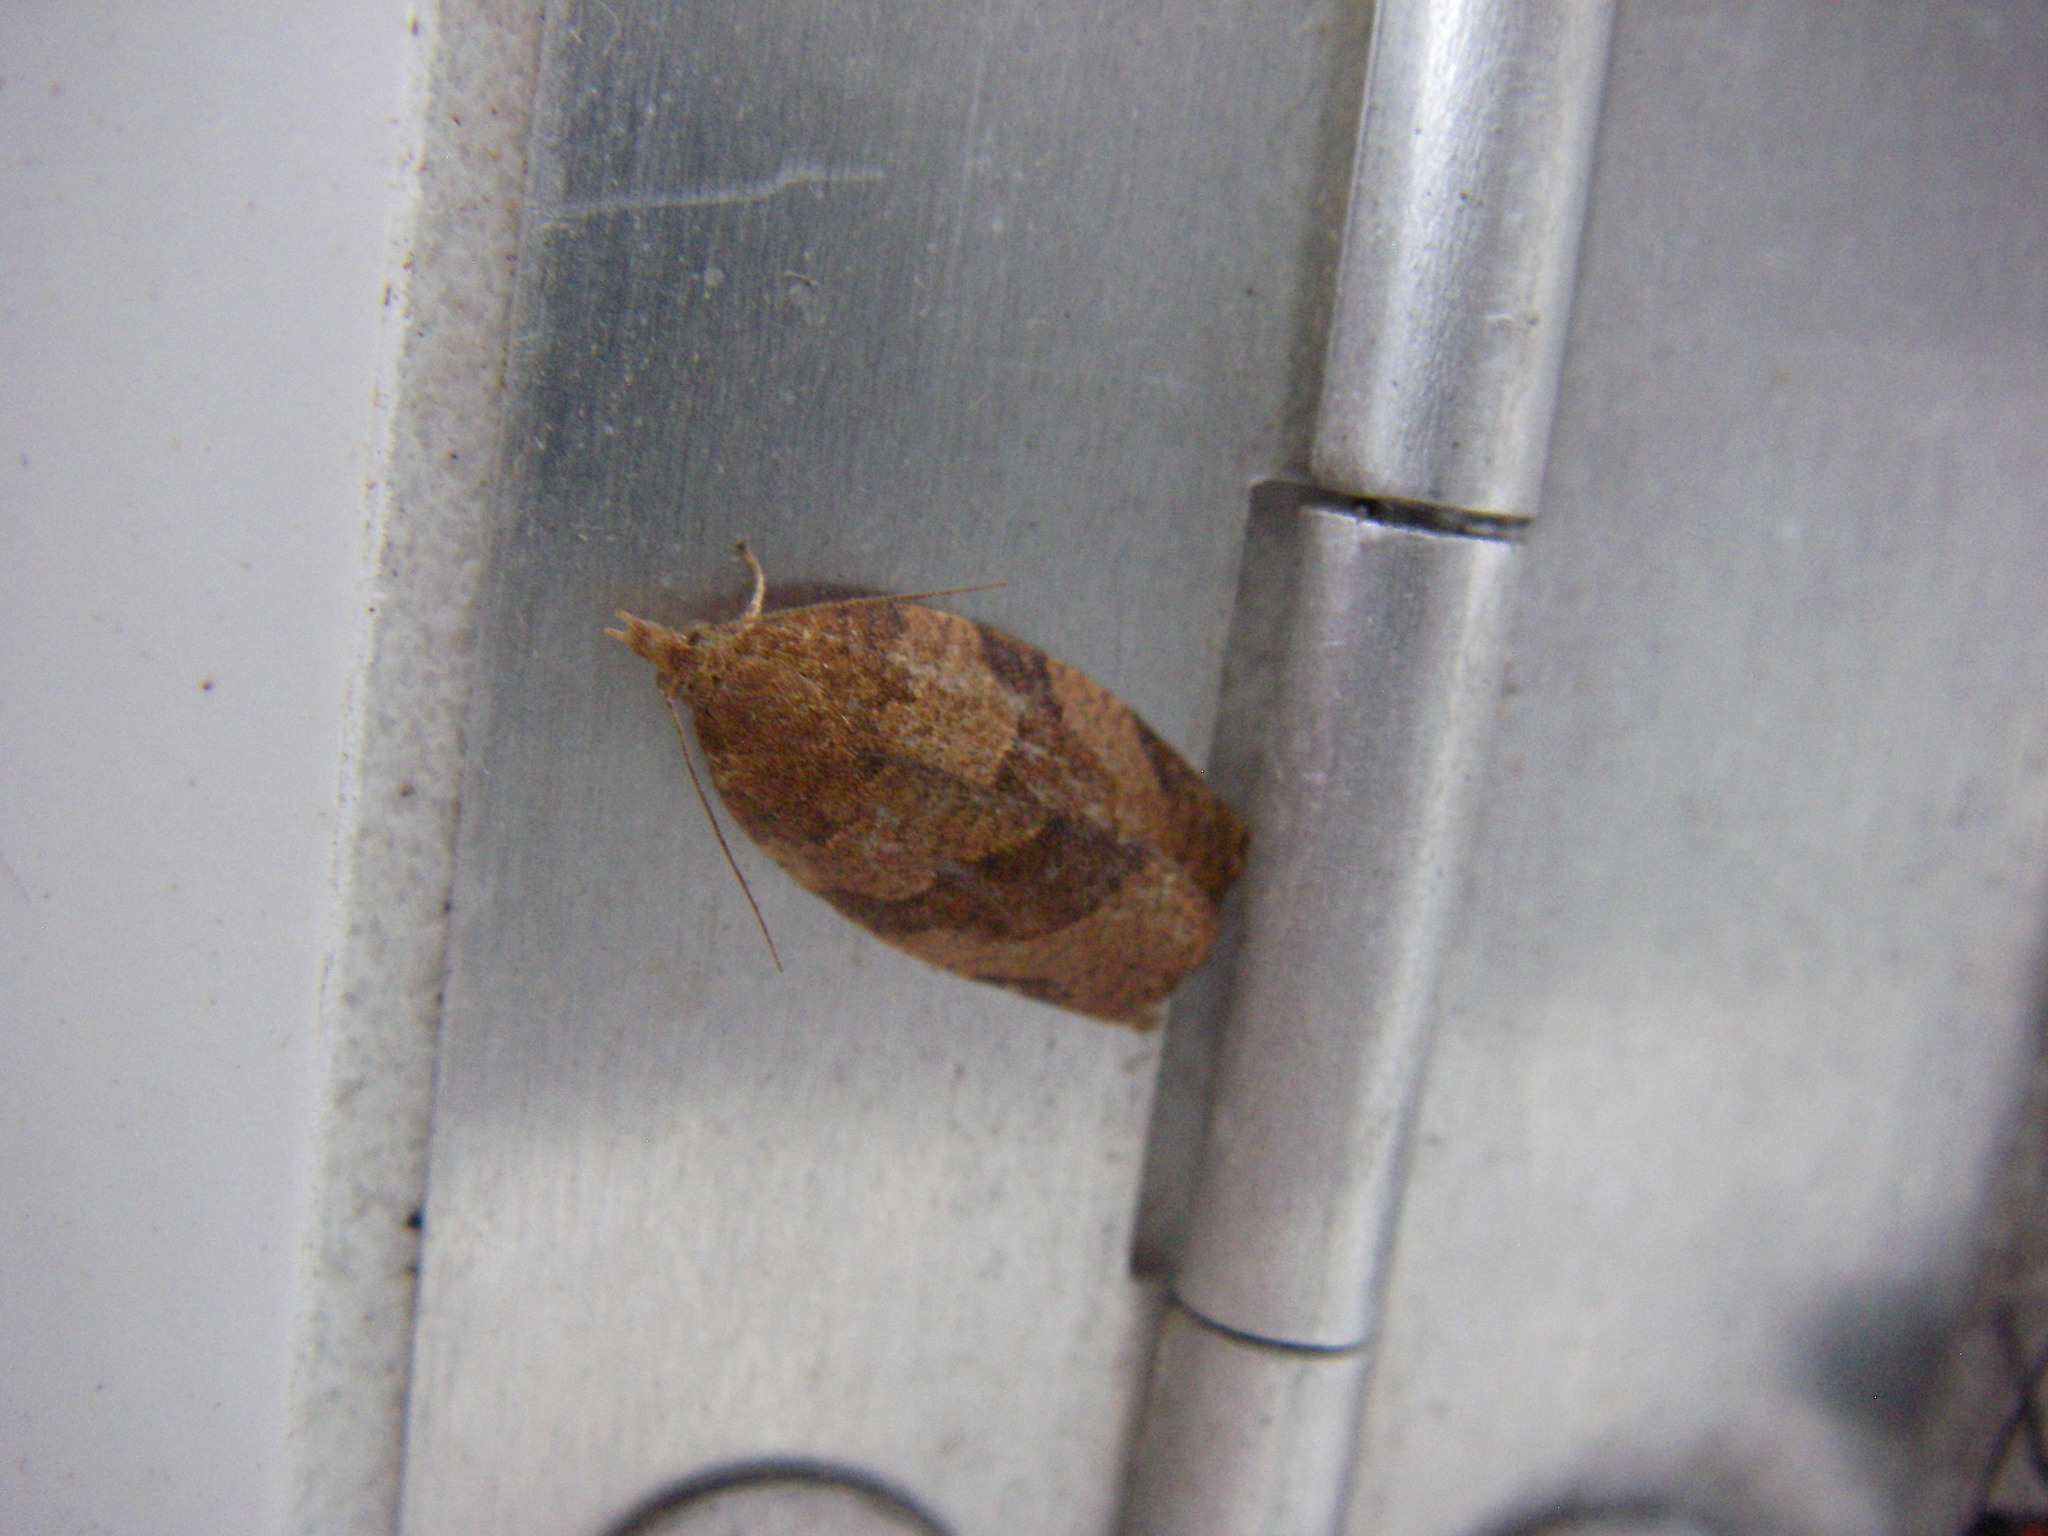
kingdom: Animalia
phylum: Arthropoda
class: Insecta
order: Lepidoptera
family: Tortricidae
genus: Pandemis
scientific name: Pandemis heparana
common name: Dark fruit-tree tortrix
